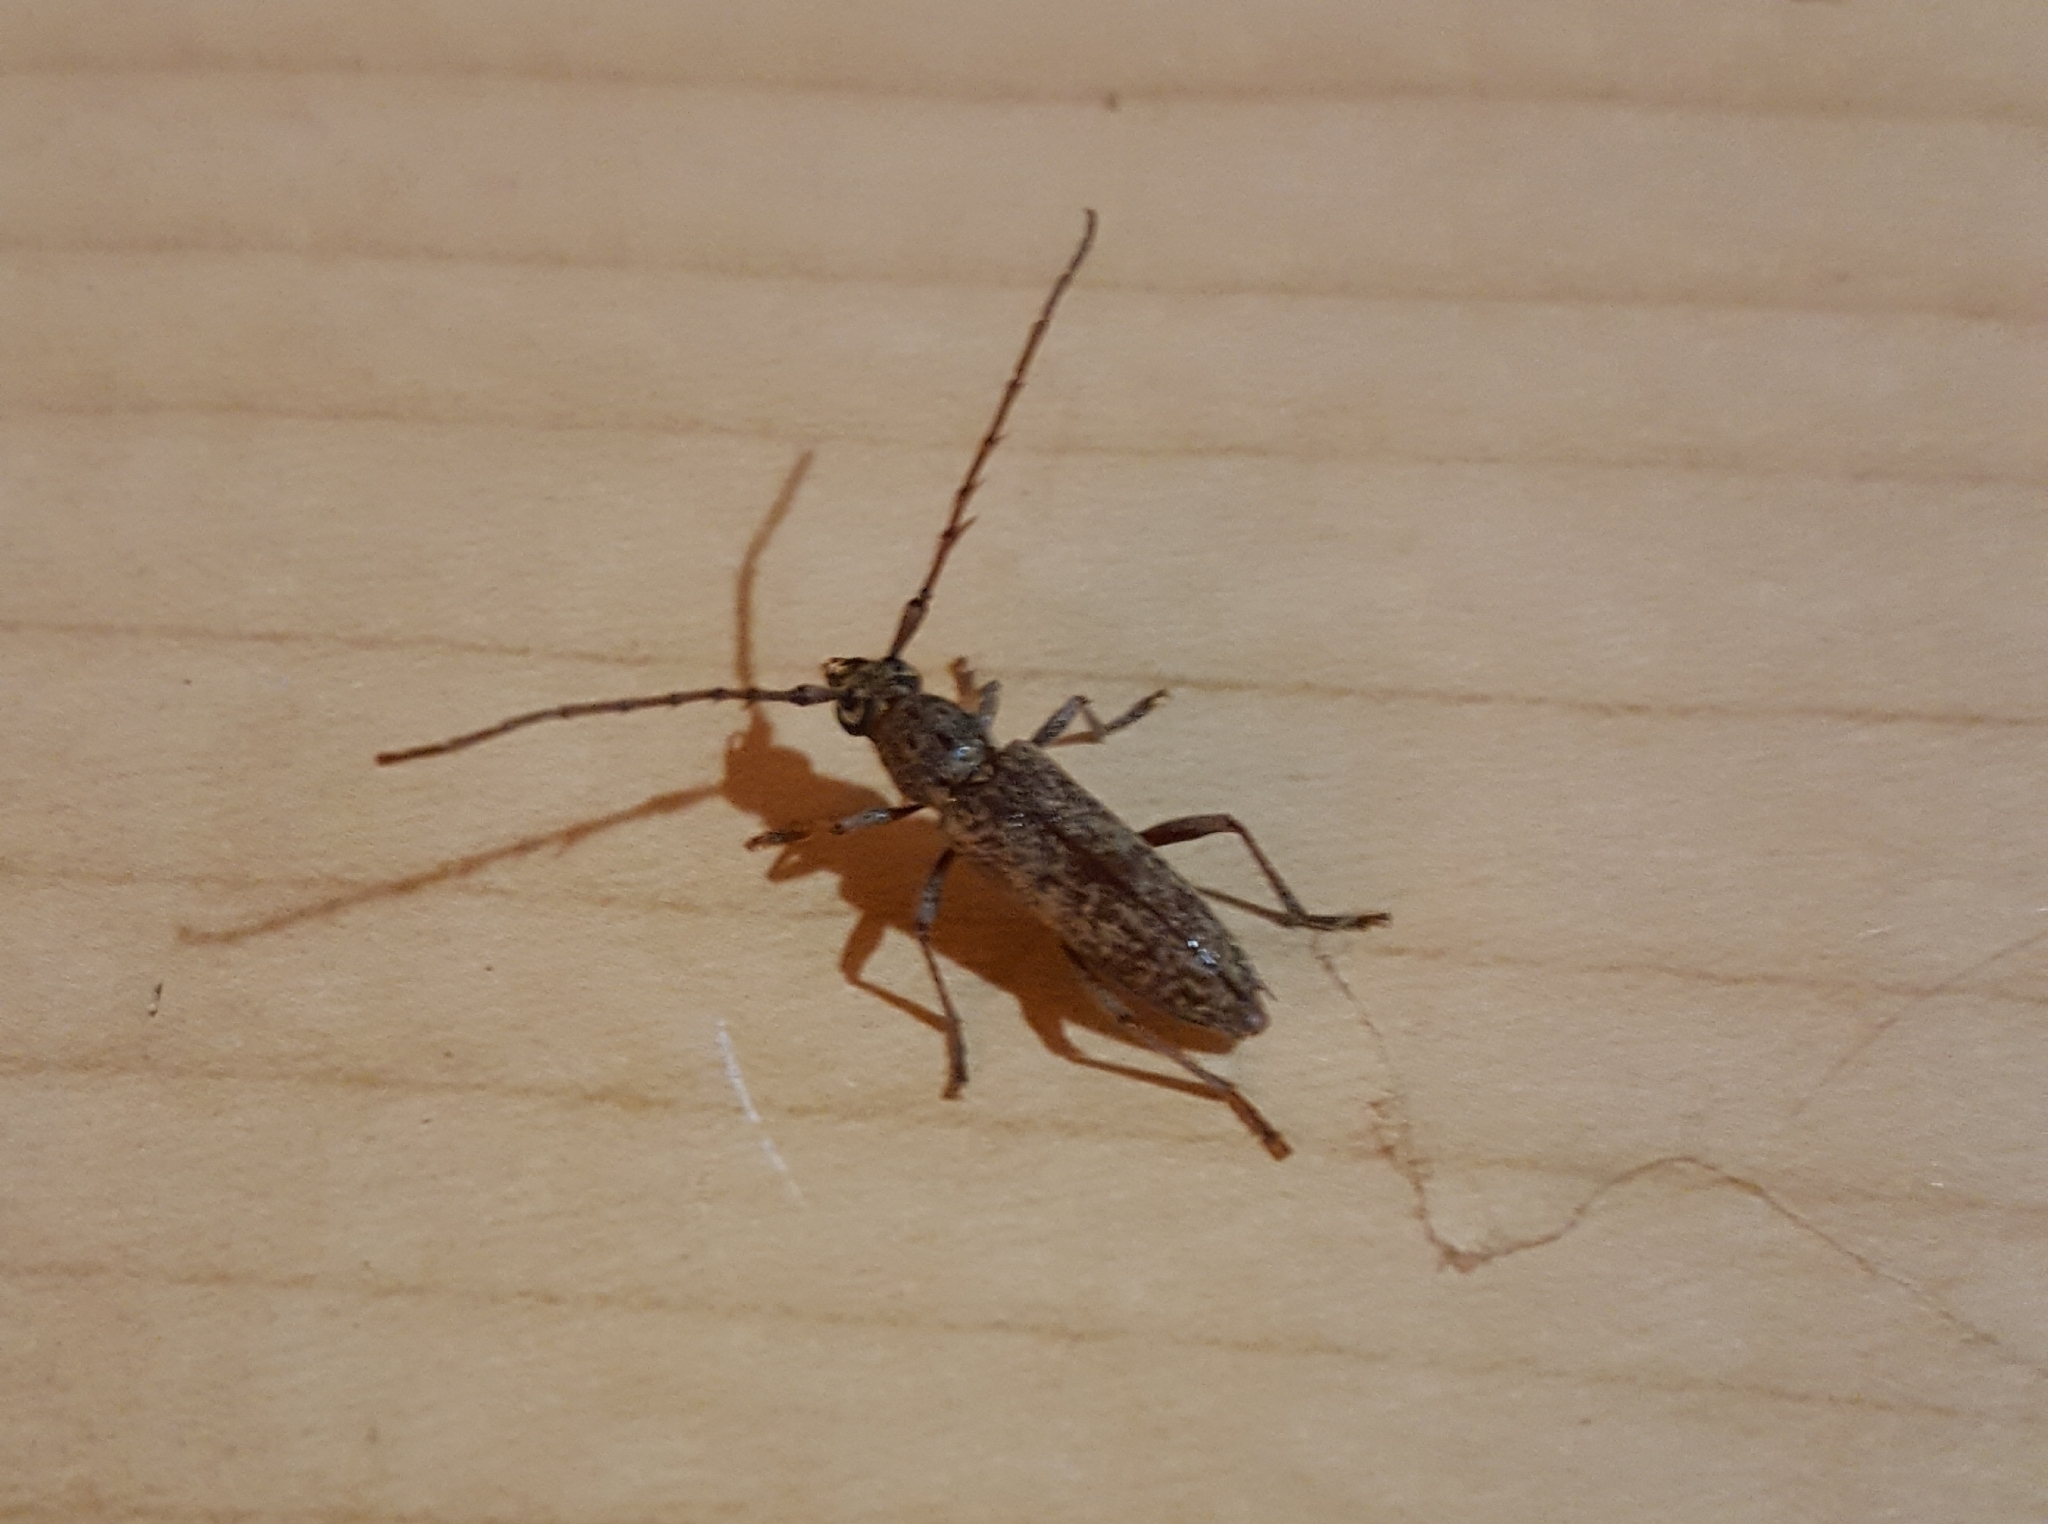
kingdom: Animalia
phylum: Arthropoda
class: Insecta
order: Coleoptera
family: Cerambycidae
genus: Elaphidion
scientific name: Elaphidion mucronatum
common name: Spined oak borer
